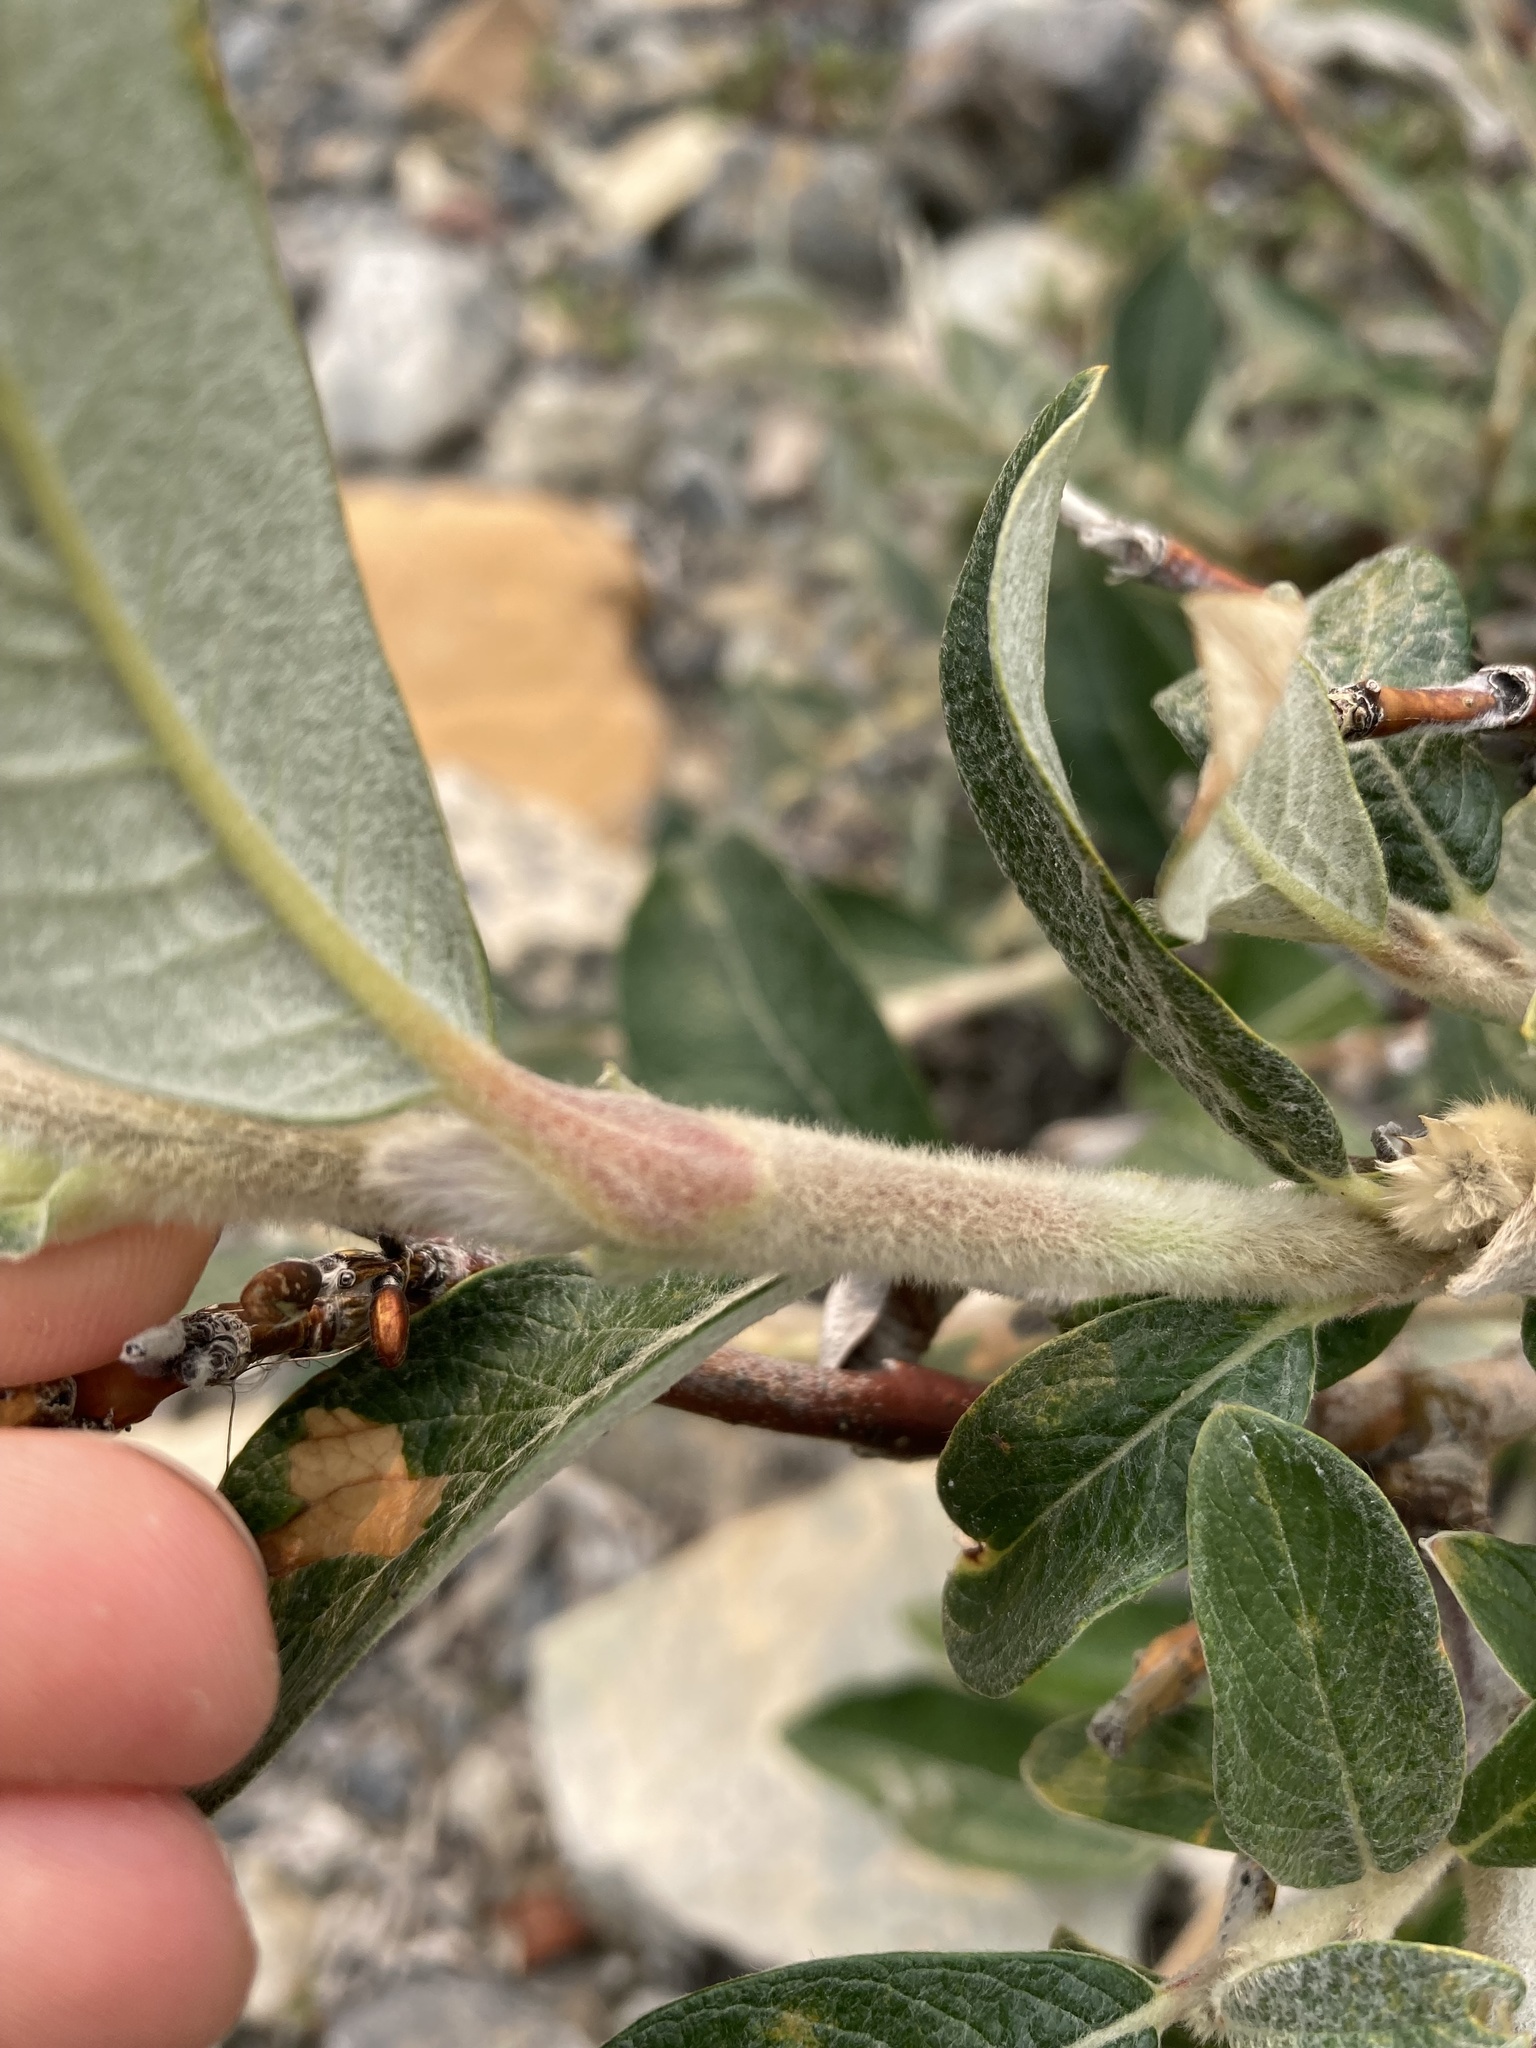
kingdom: Plantae
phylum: Tracheophyta
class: Magnoliopsida
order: Malpighiales
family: Salicaceae
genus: Salix
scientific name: Salix alaxensis
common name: Feltleaf willow
